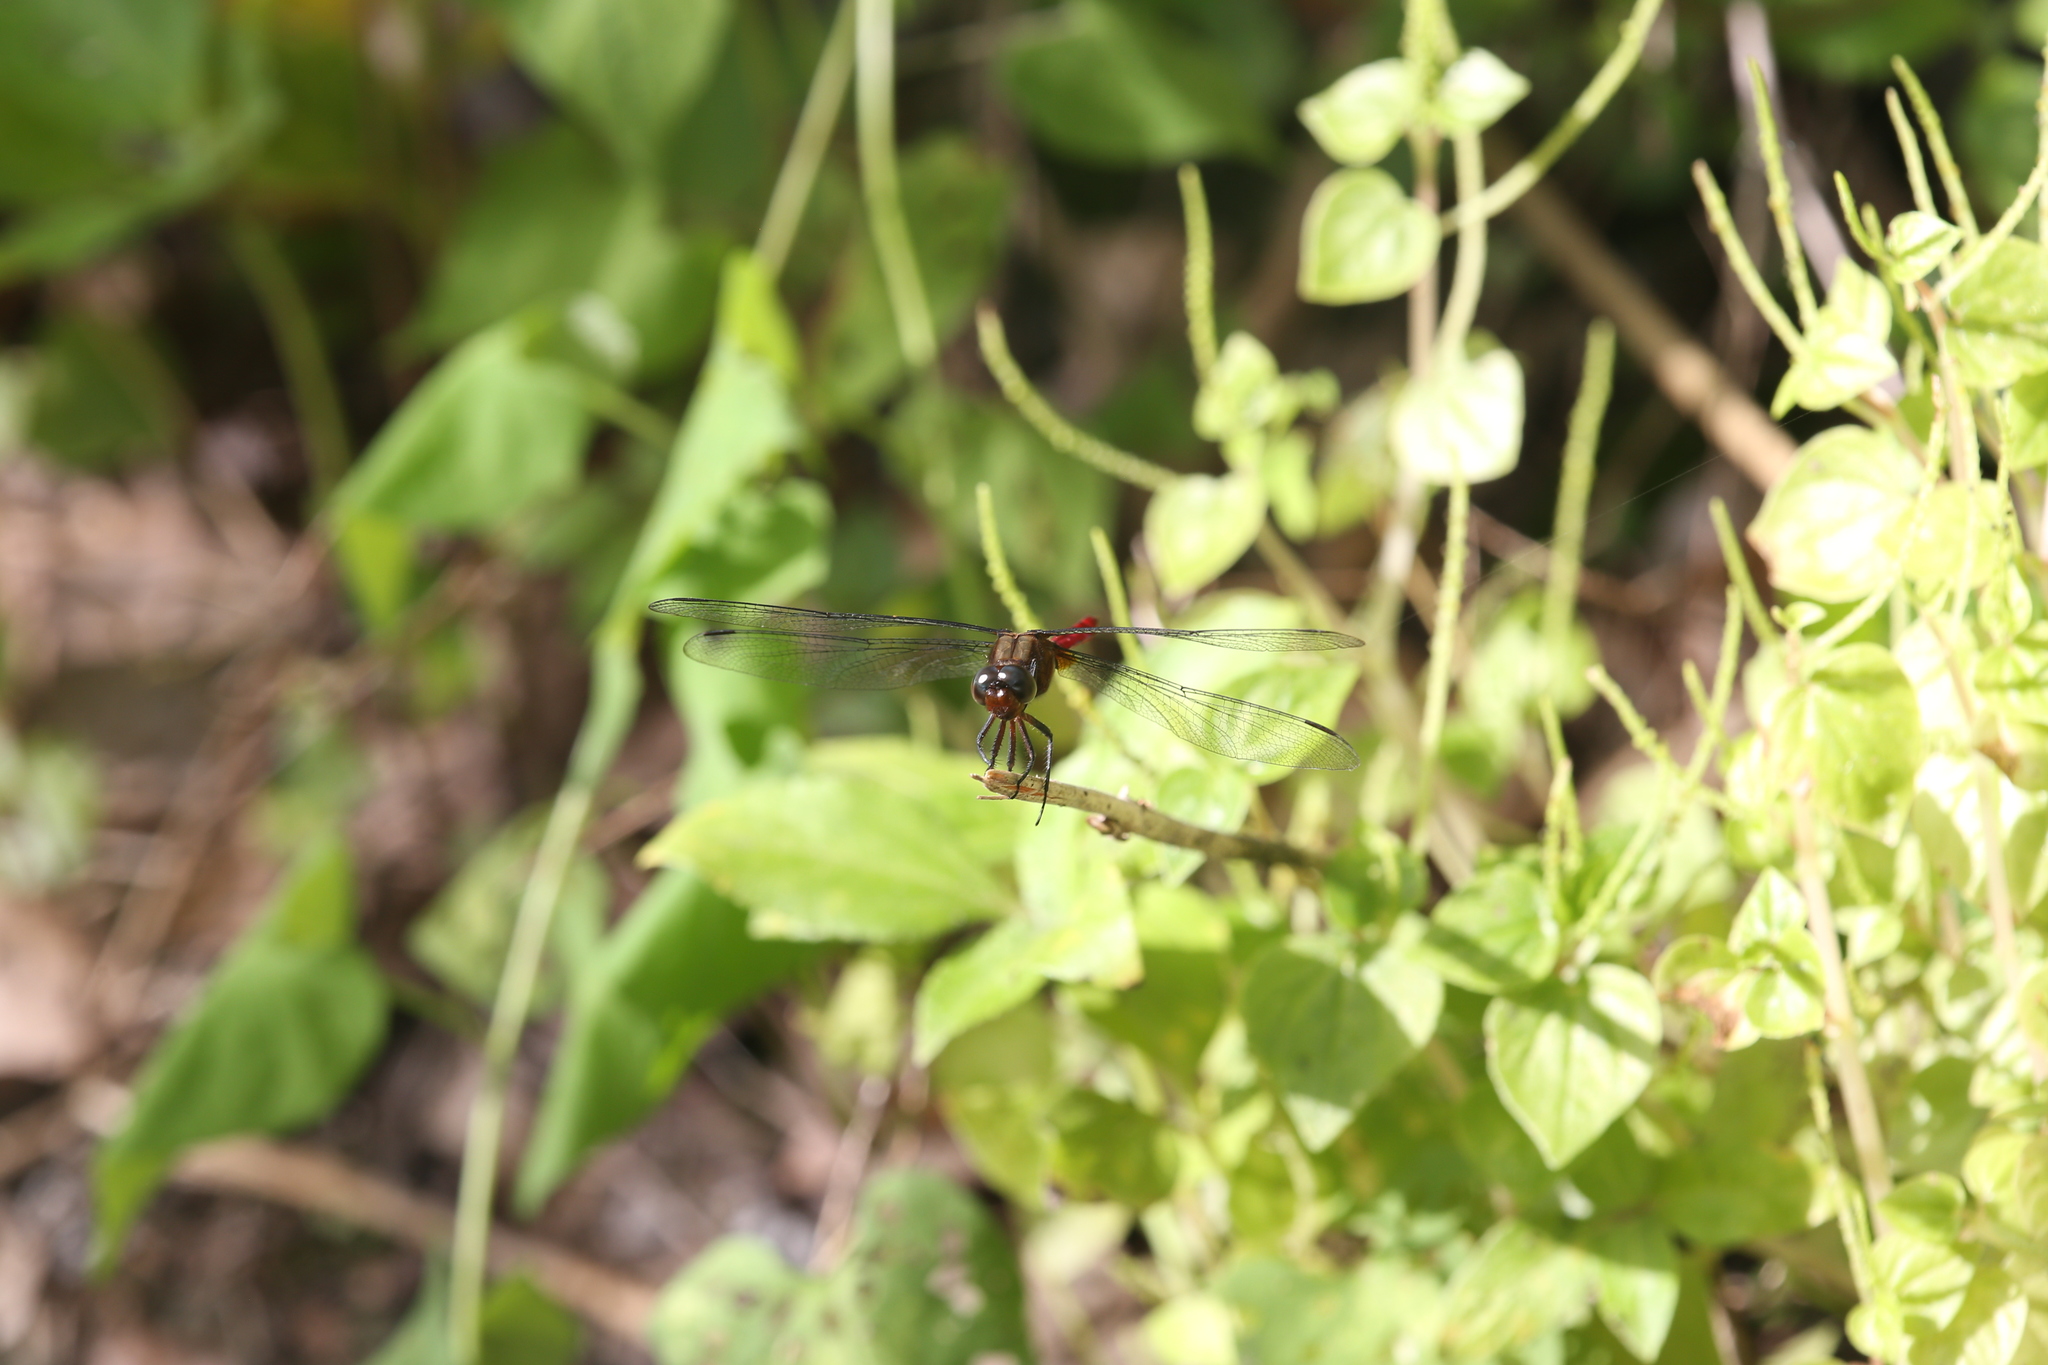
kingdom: Animalia
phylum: Arthropoda
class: Insecta
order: Odonata
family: Libellulidae
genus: Orthetrum
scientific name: Orthetrum villosovittatum
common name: Firery skimmer
